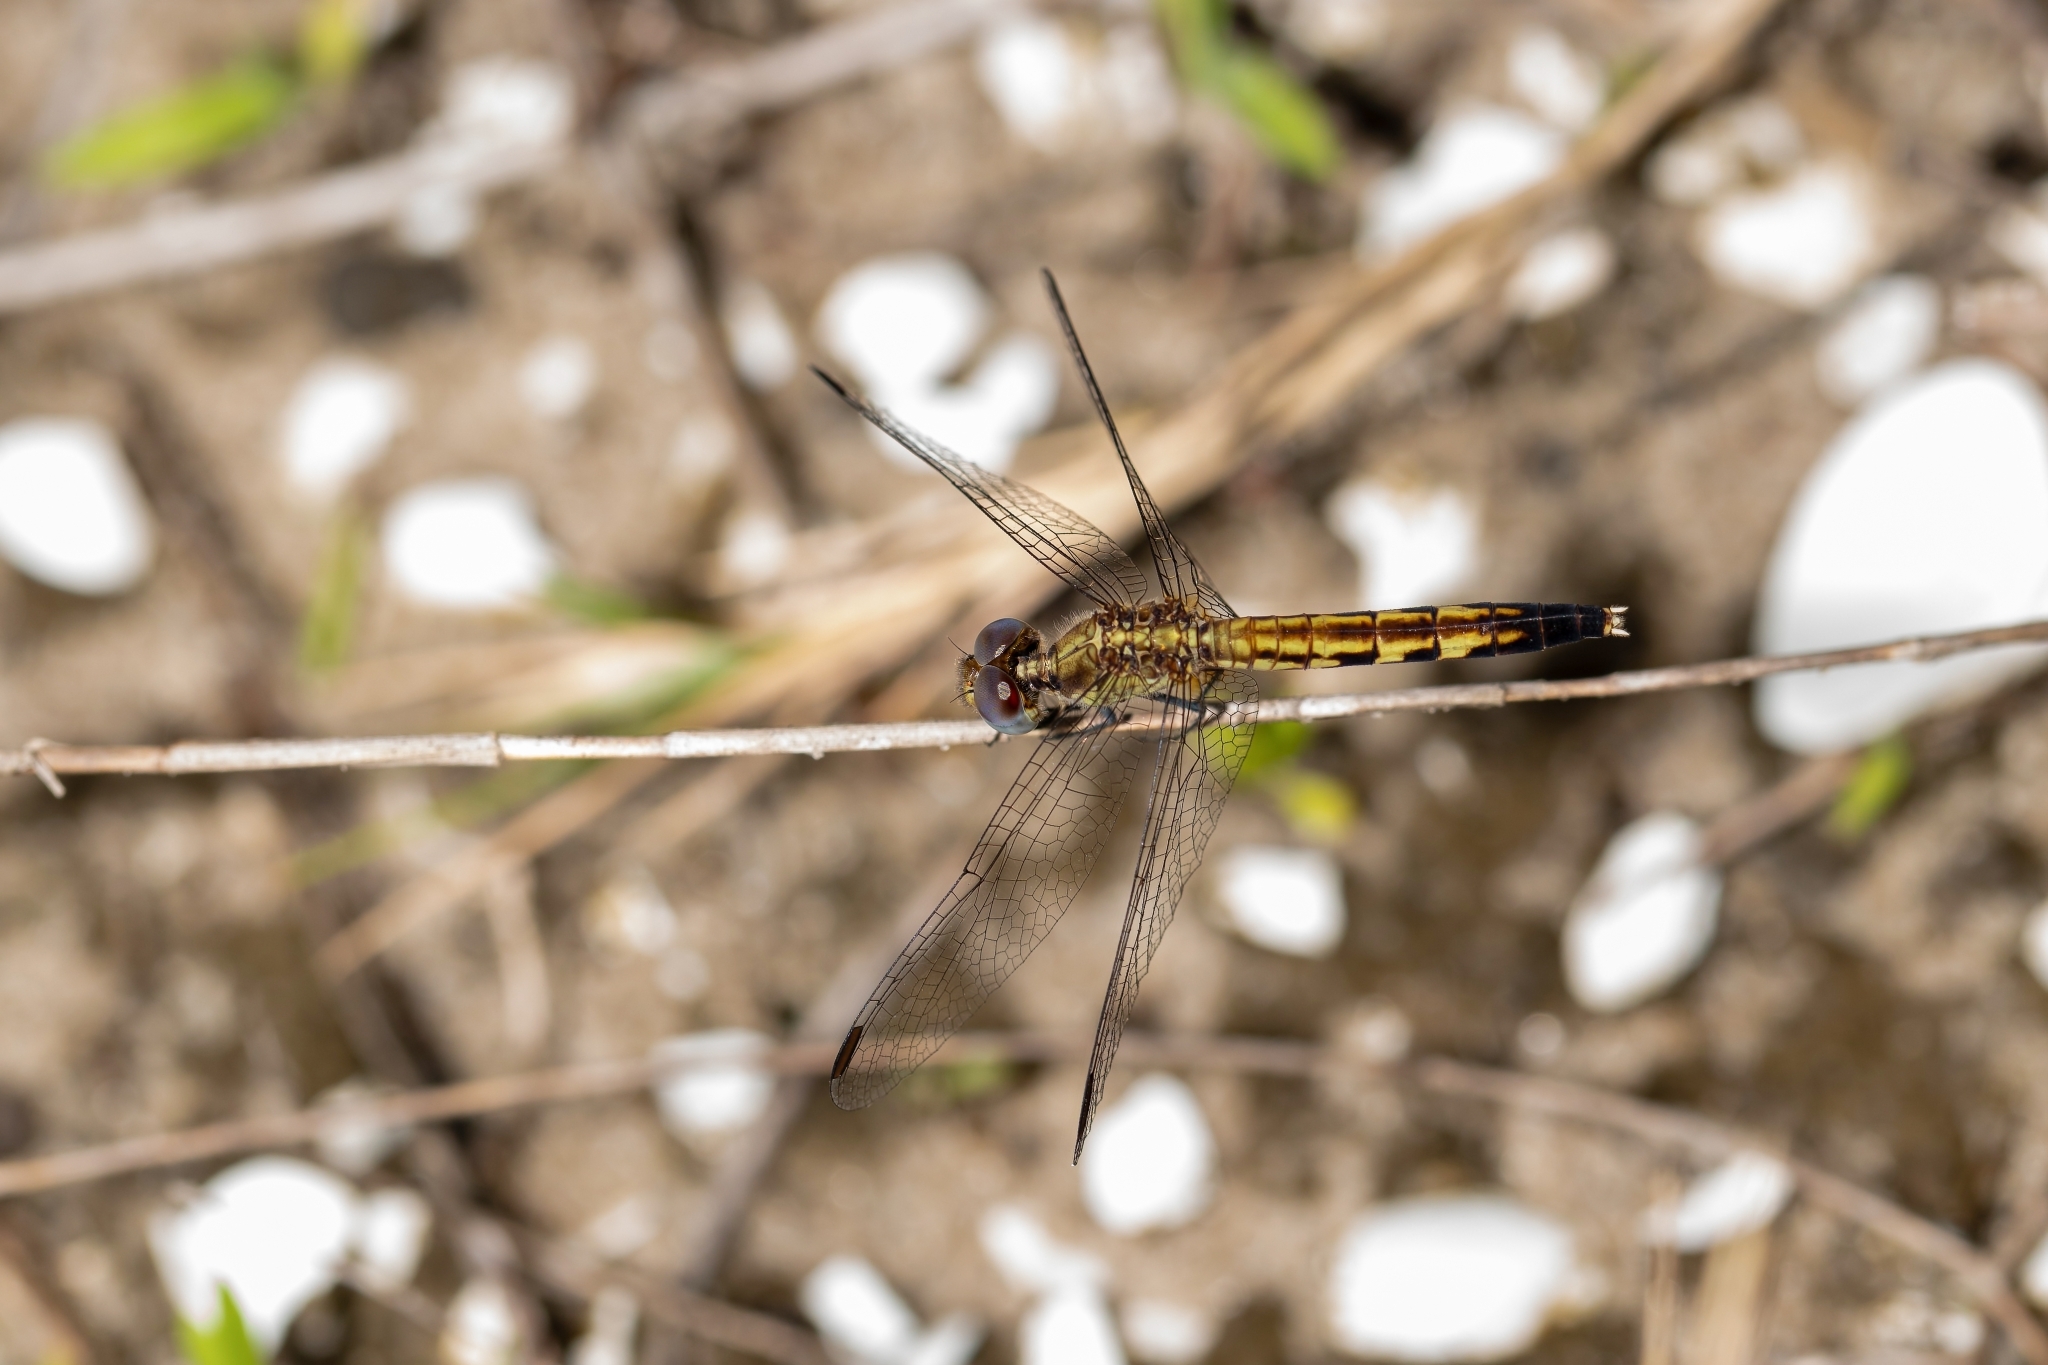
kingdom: Animalia
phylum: Arthropoda
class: Insecta
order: Odonata
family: Libellulidae
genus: Erythrodiplax
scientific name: Erythrodiplax minuscula
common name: Little blue dragonlet
